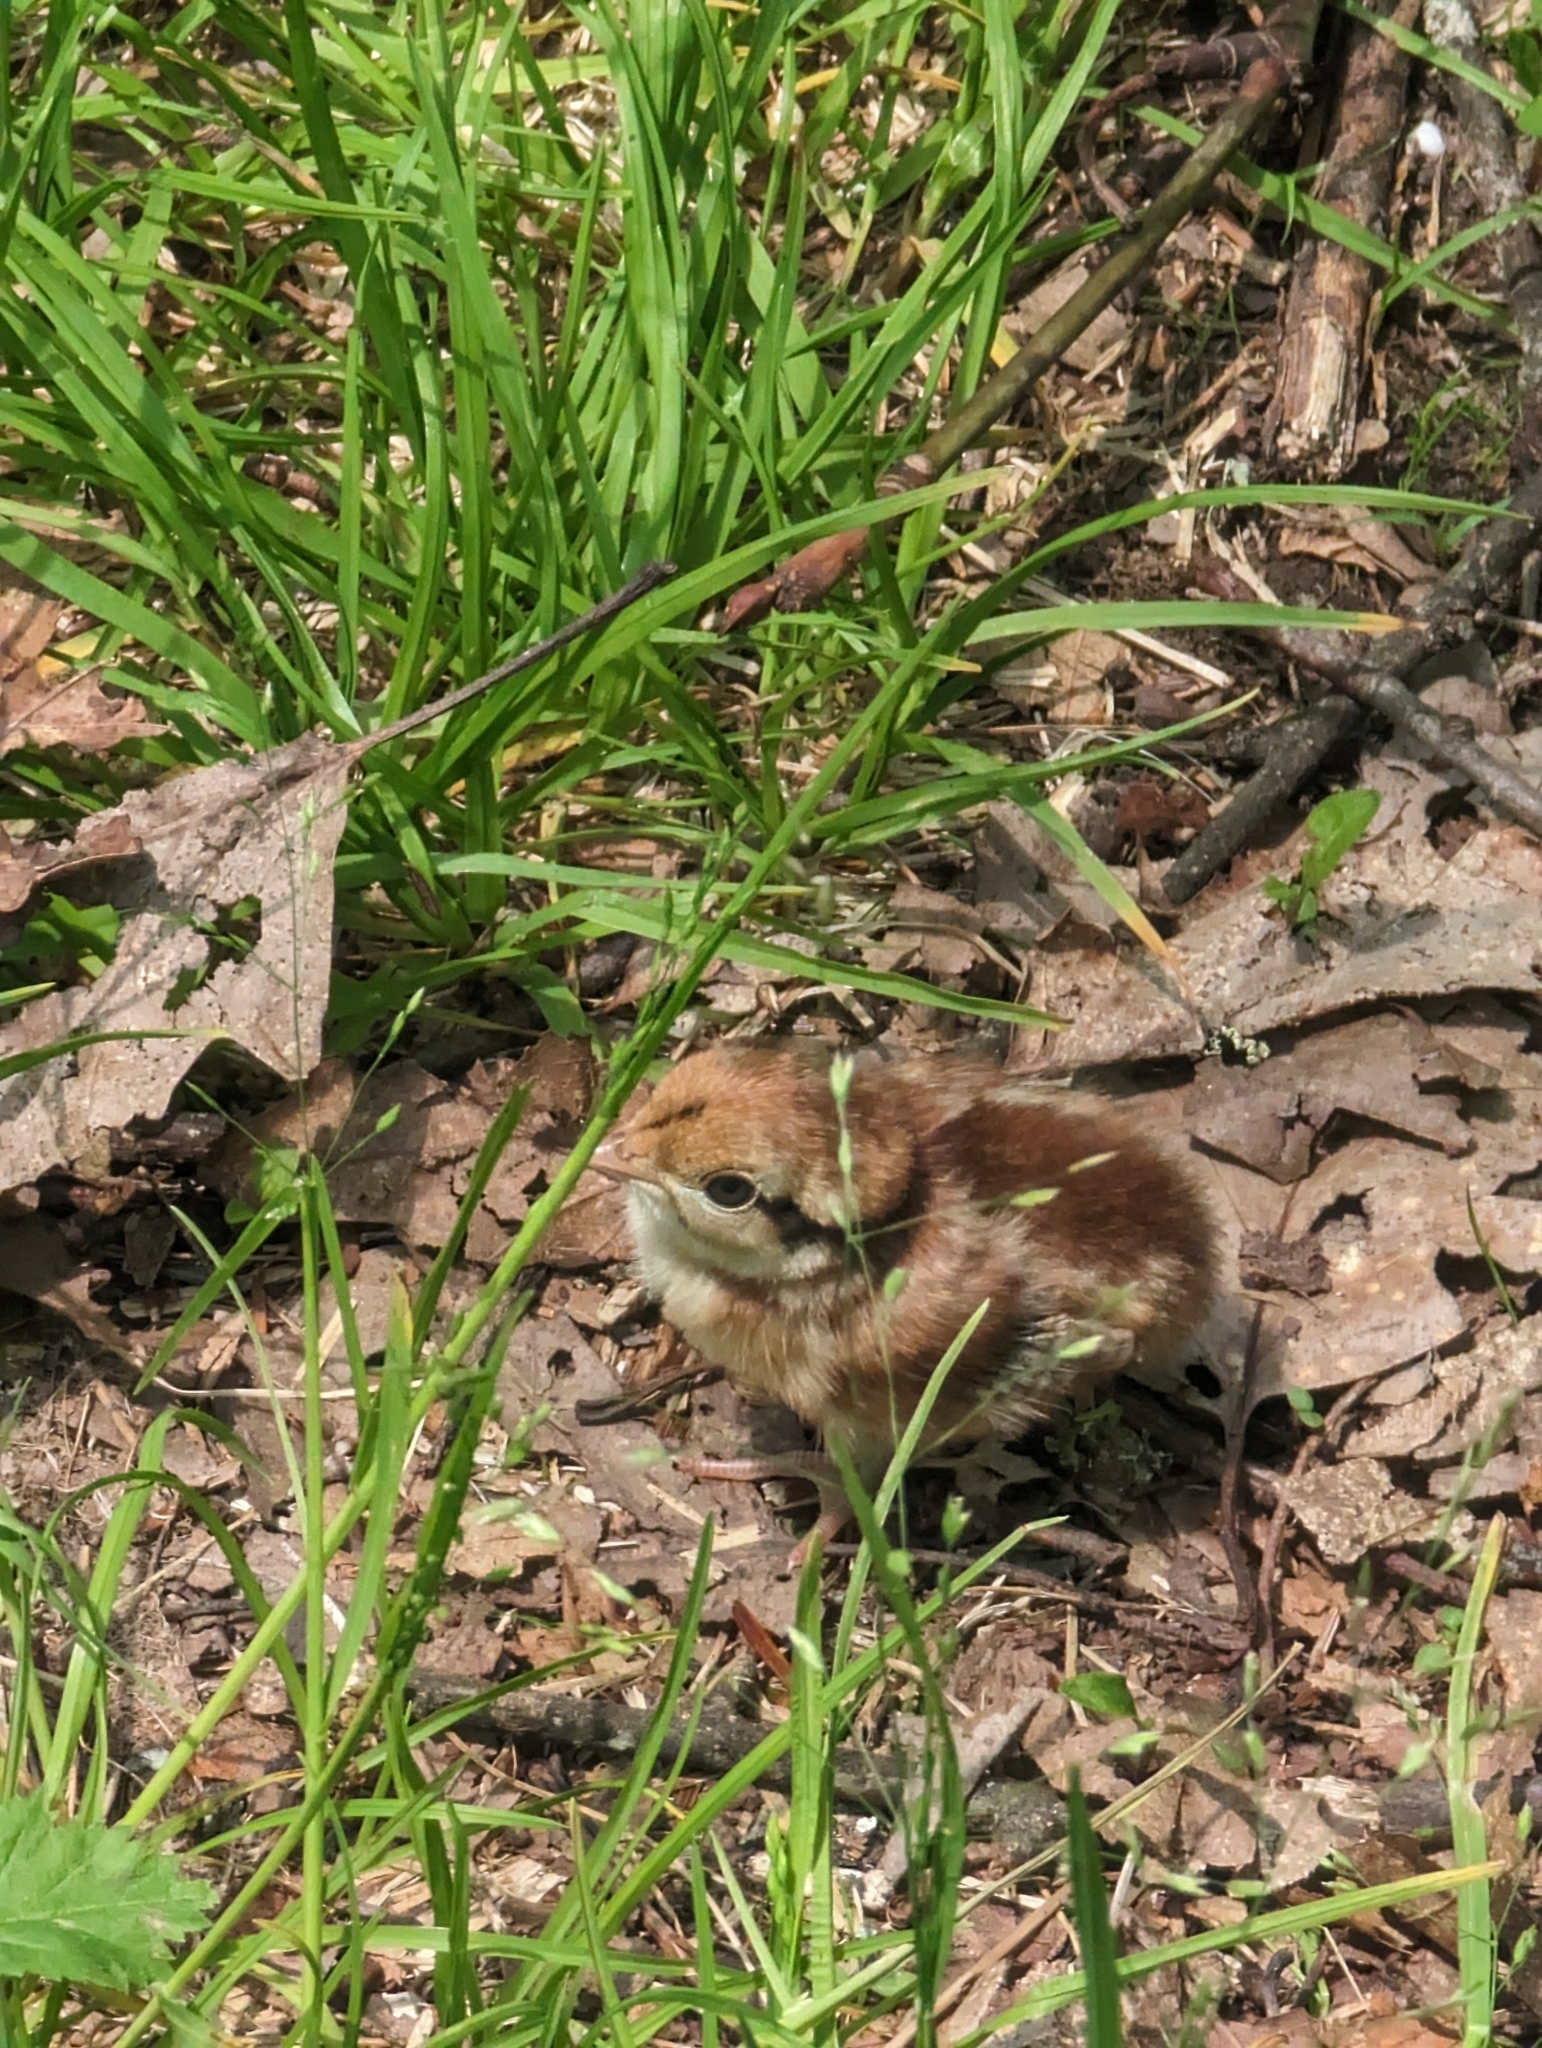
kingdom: Animalia
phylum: Chordata
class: Aves
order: Galliformes
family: Phasianidae
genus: Bonasa
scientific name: Bonasa umbellus
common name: Ruffed grouse
